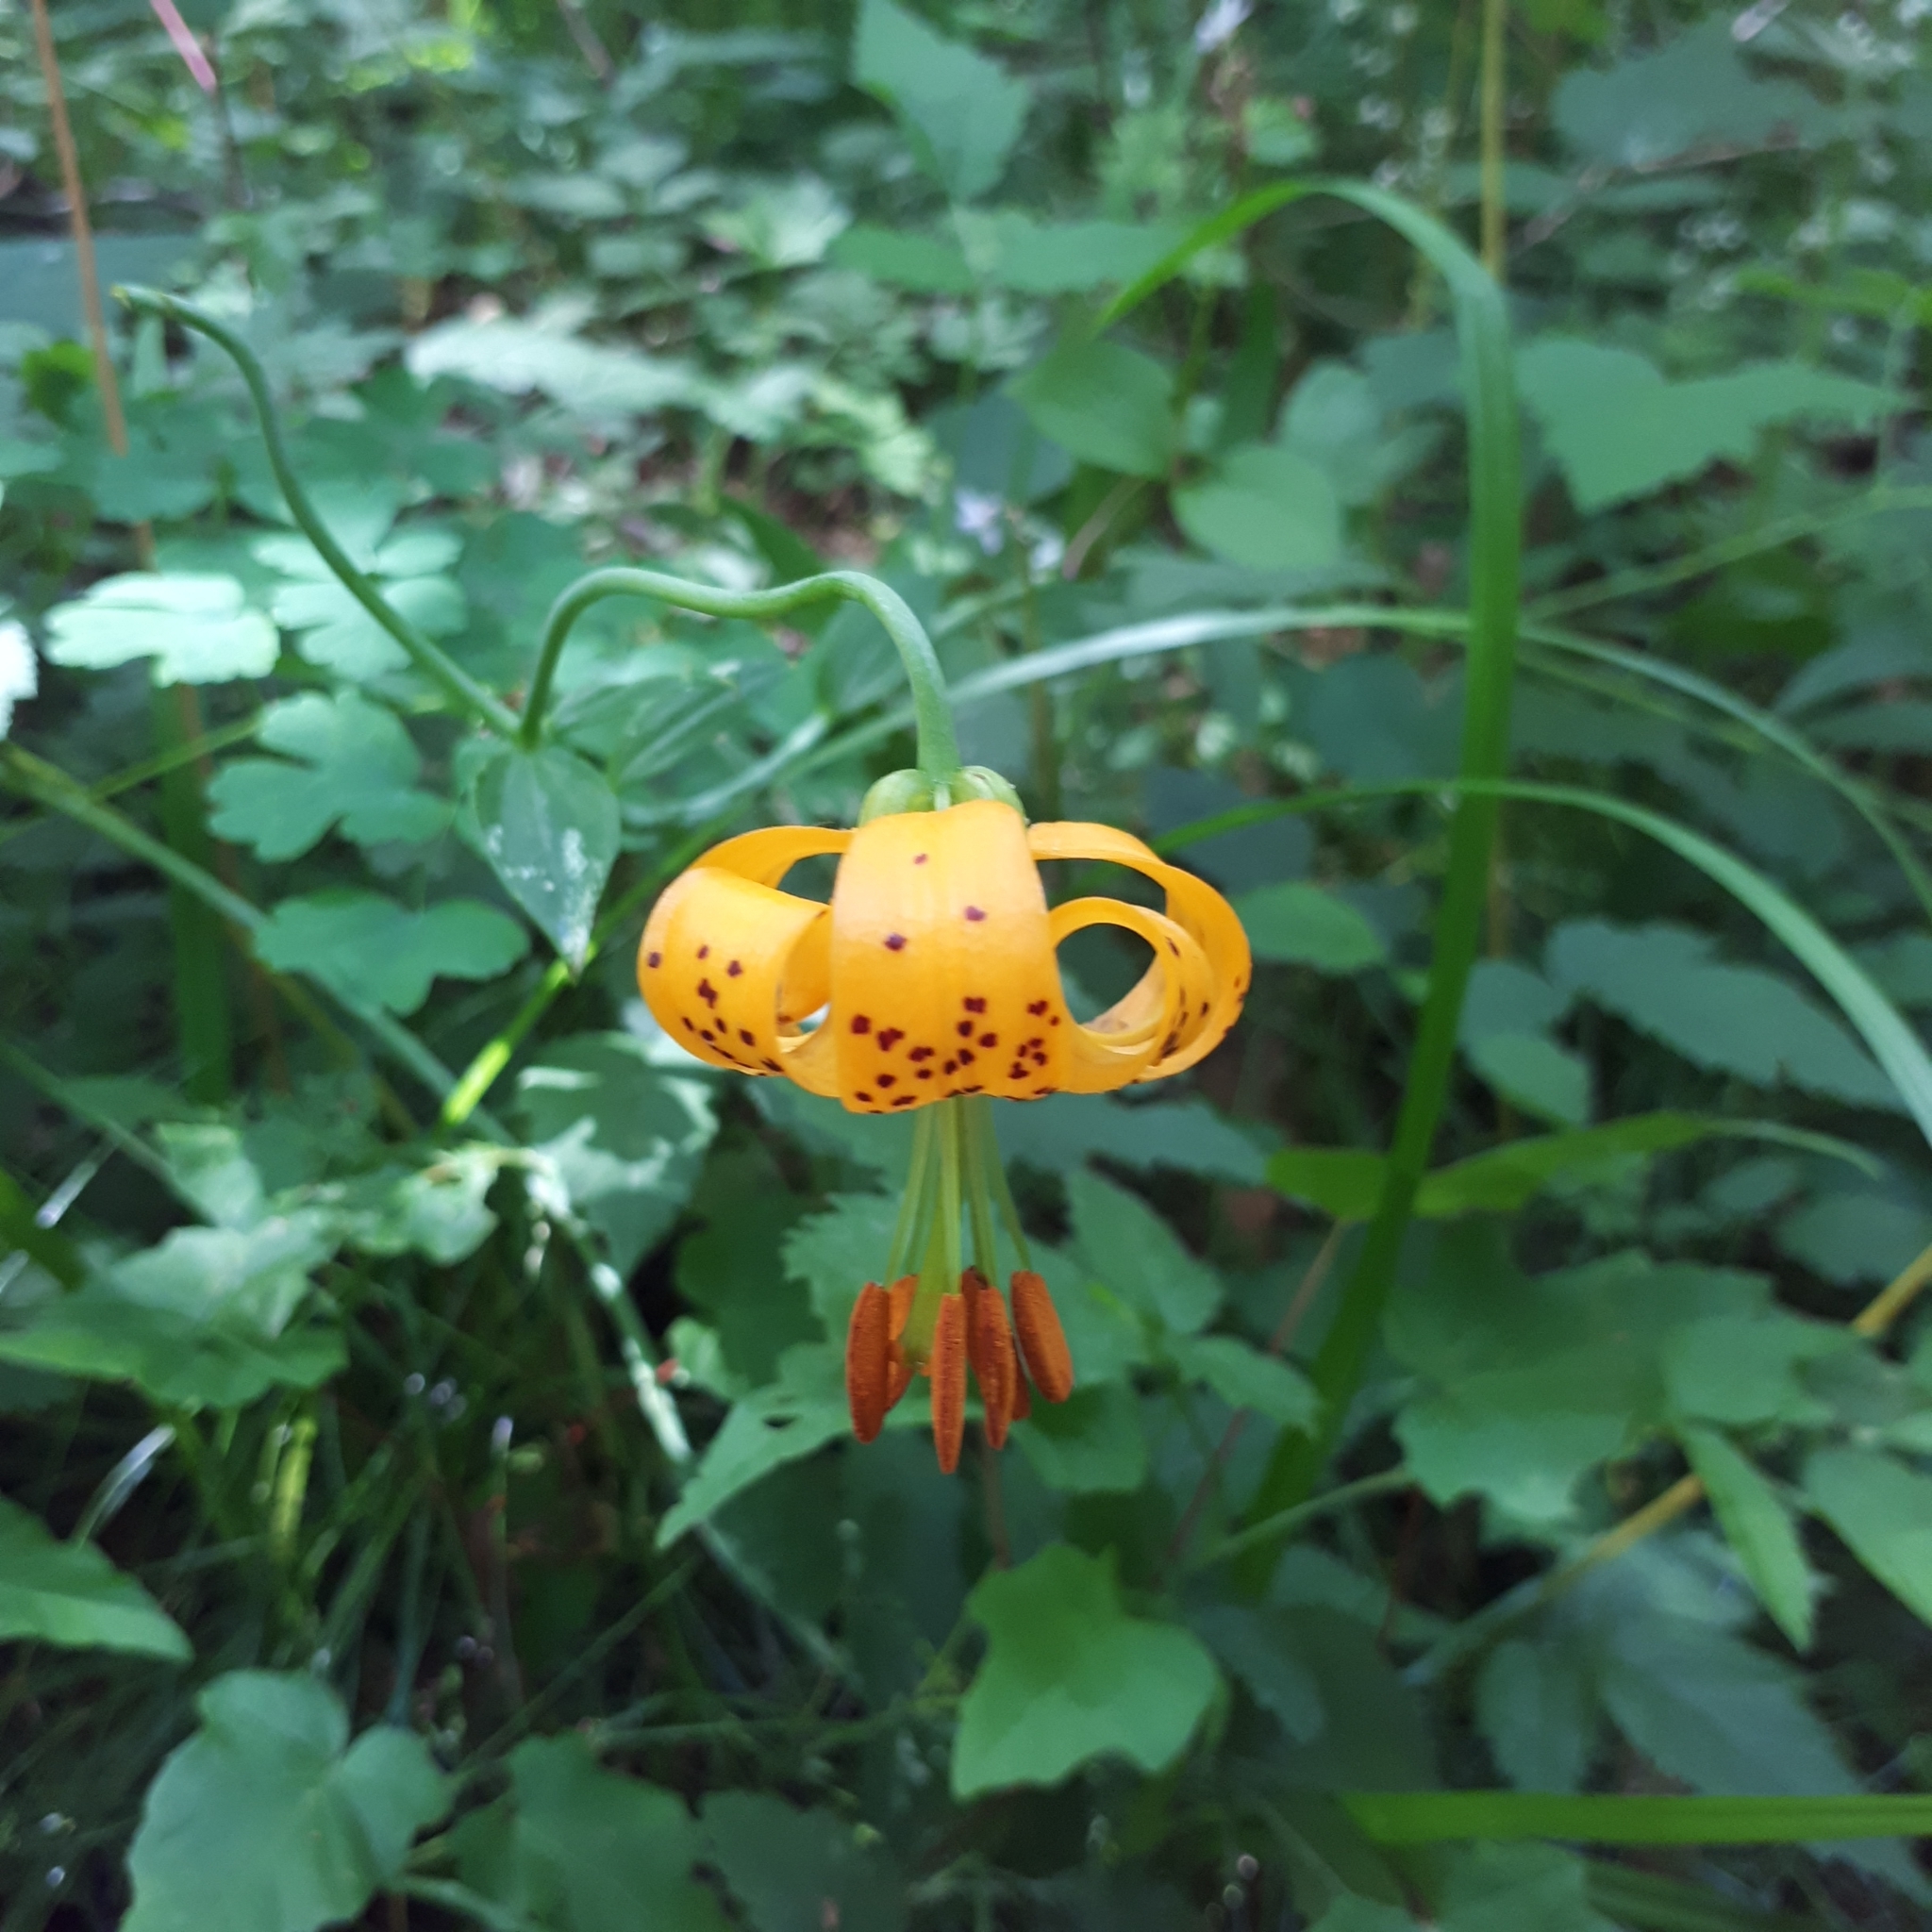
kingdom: Plantae
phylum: Tracheophyta
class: Liliopsida
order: Liliales
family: Liliaceae
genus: Lilium
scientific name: Lilium columbianum
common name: Columbia lily
